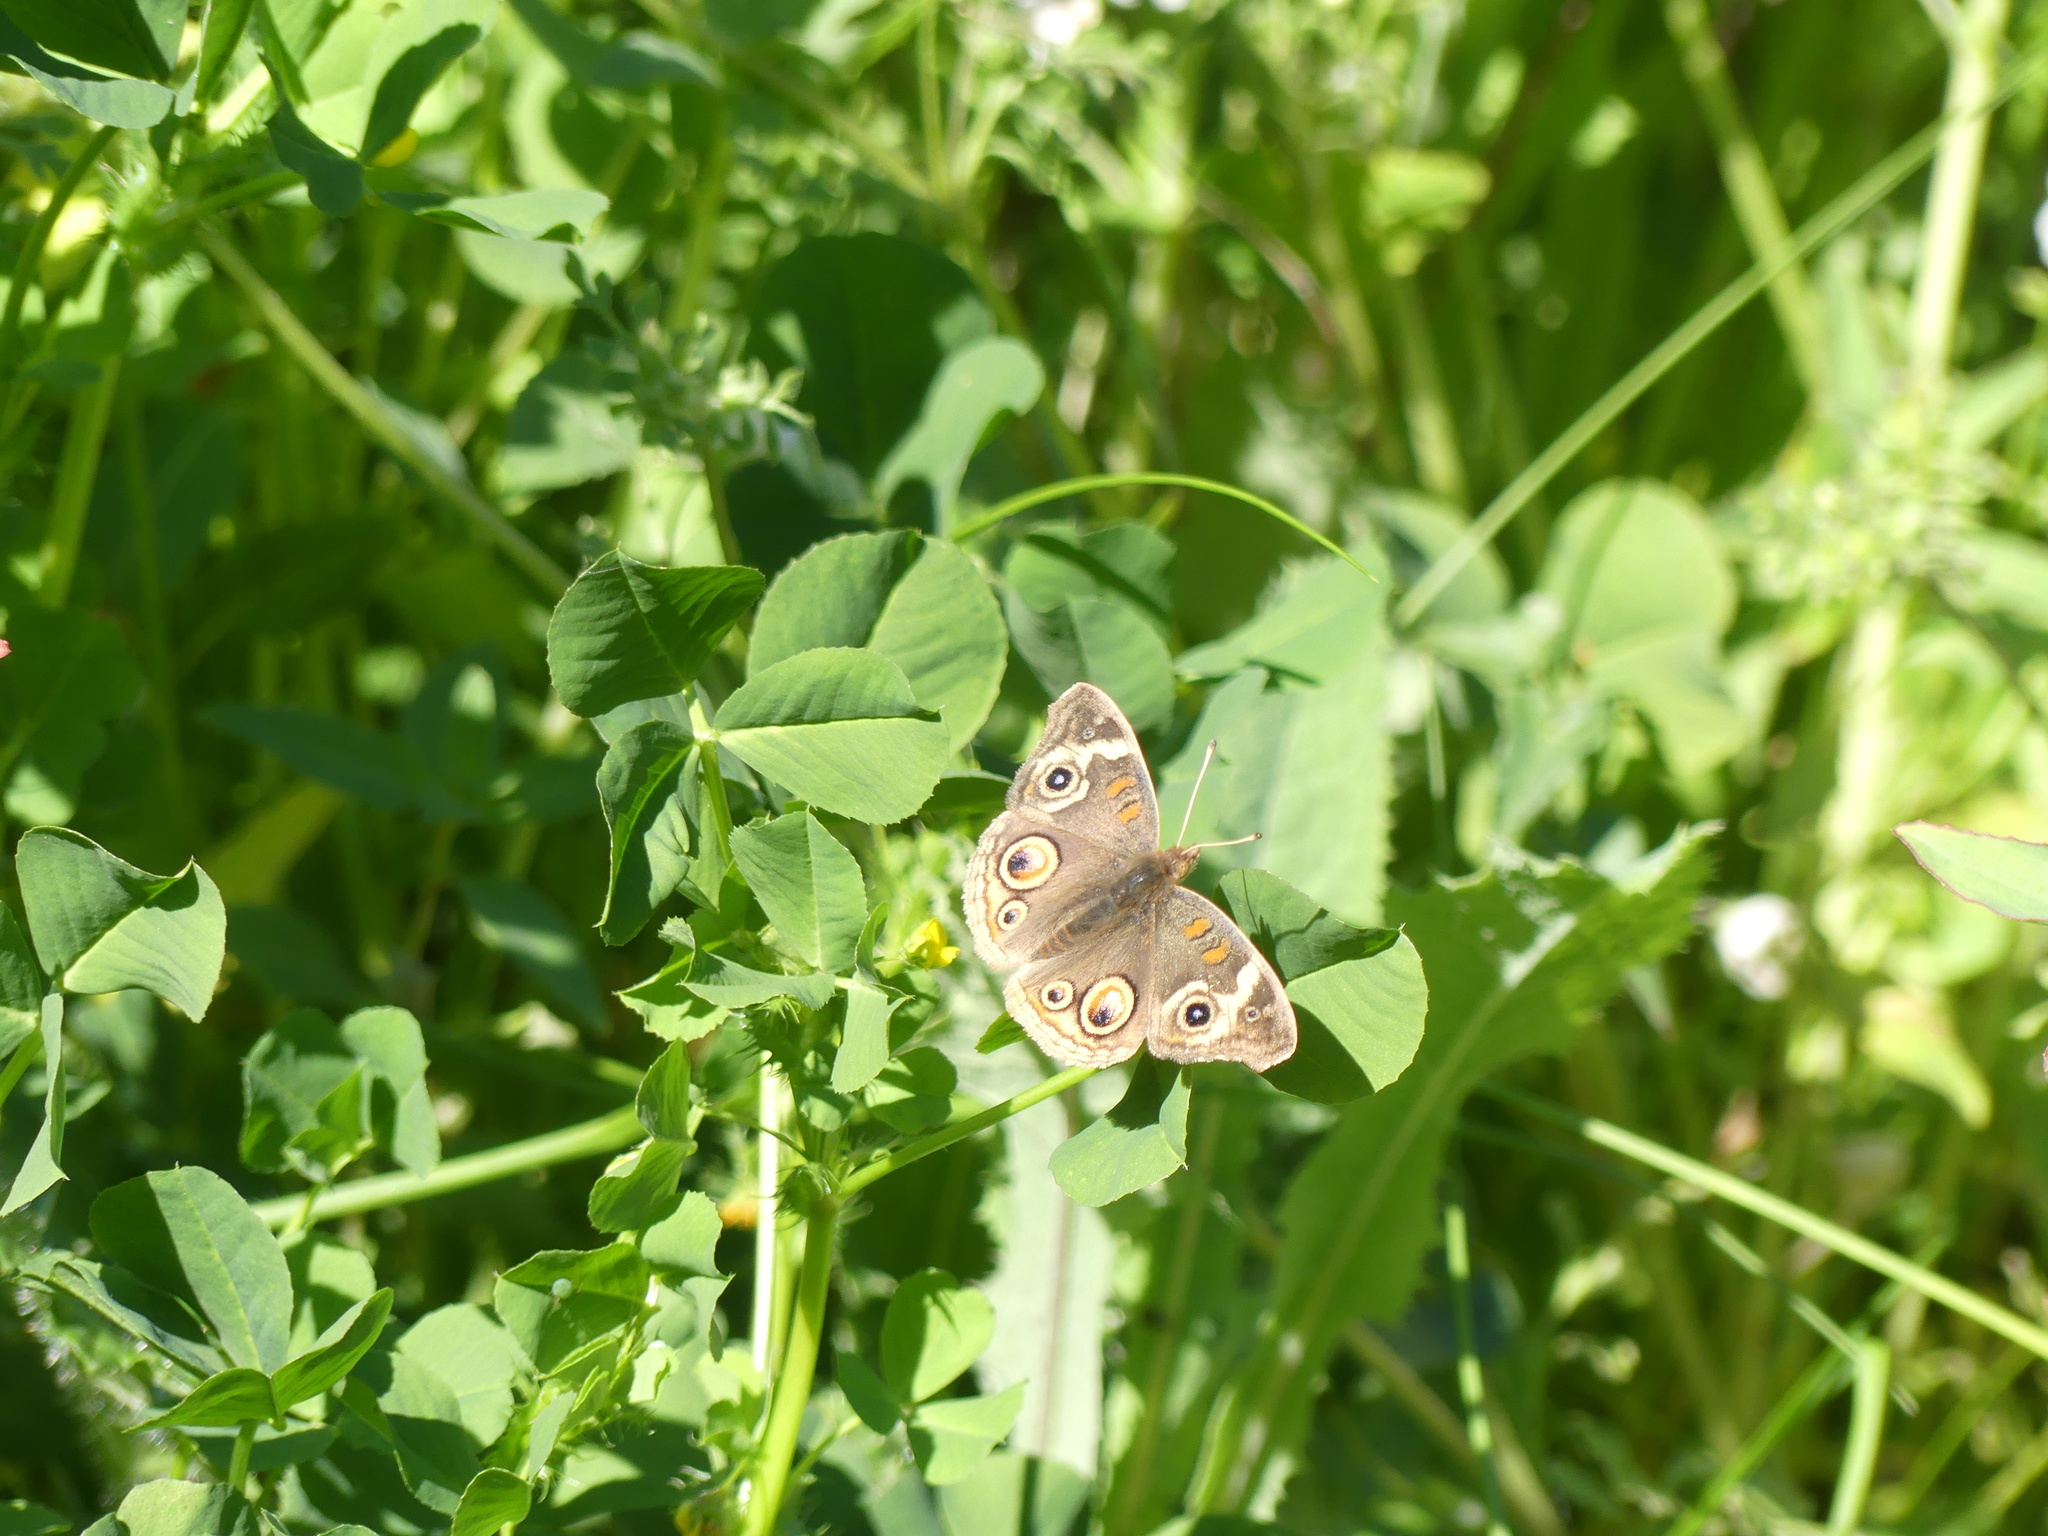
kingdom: Animalia
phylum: Arthropoda
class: Insecta
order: Lepidoptera
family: Nymphalidae
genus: Junonia
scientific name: Junonia grisea
